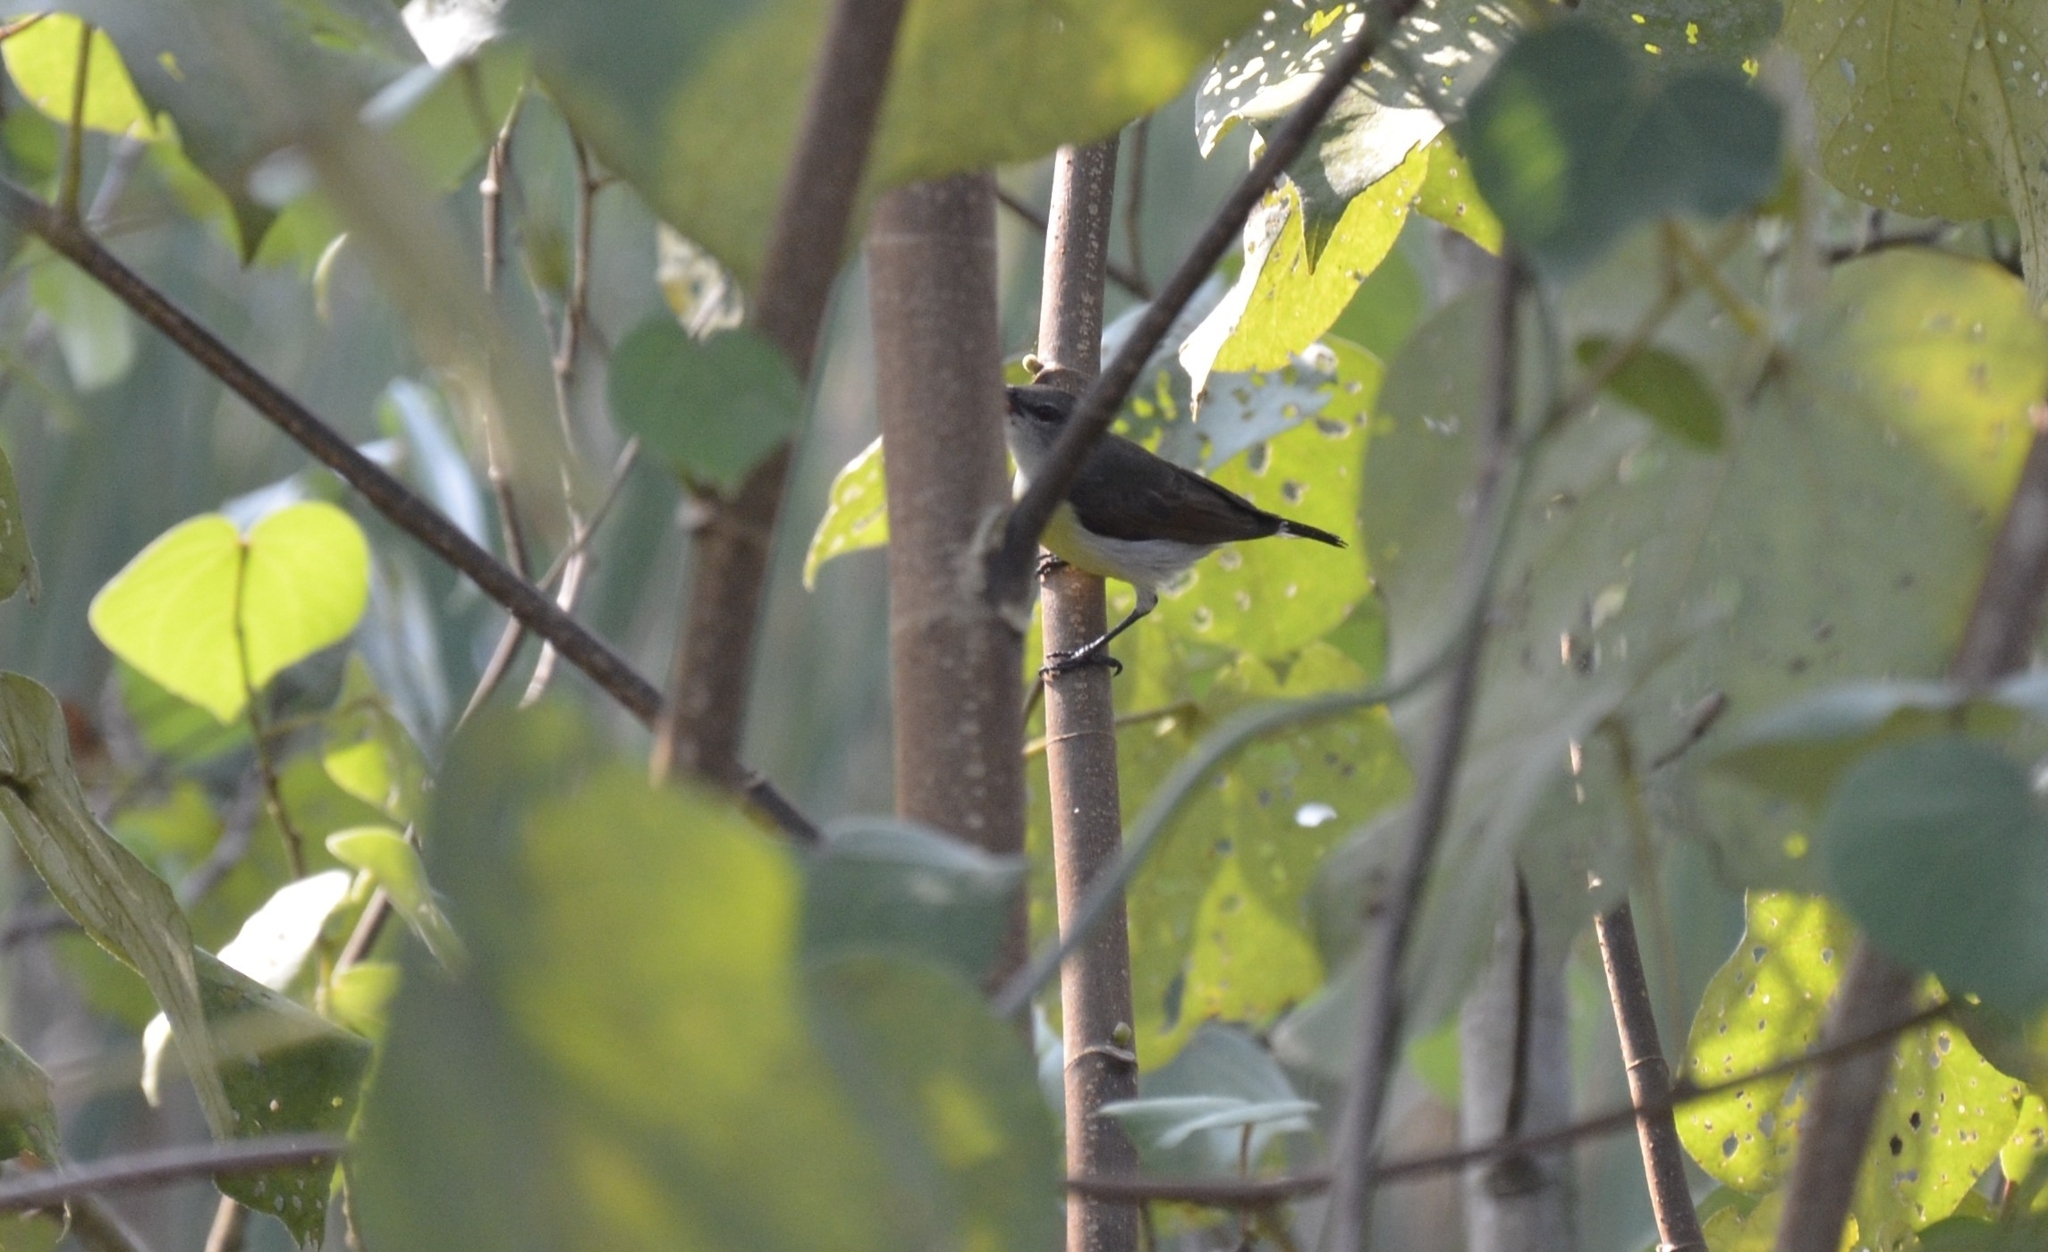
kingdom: Animalia
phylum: Chordata
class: Aves
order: Passeriformes
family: Nectariniidae
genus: Leptocoma
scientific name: Leptocoma zeylonica
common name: Purple-rumped sunbird
